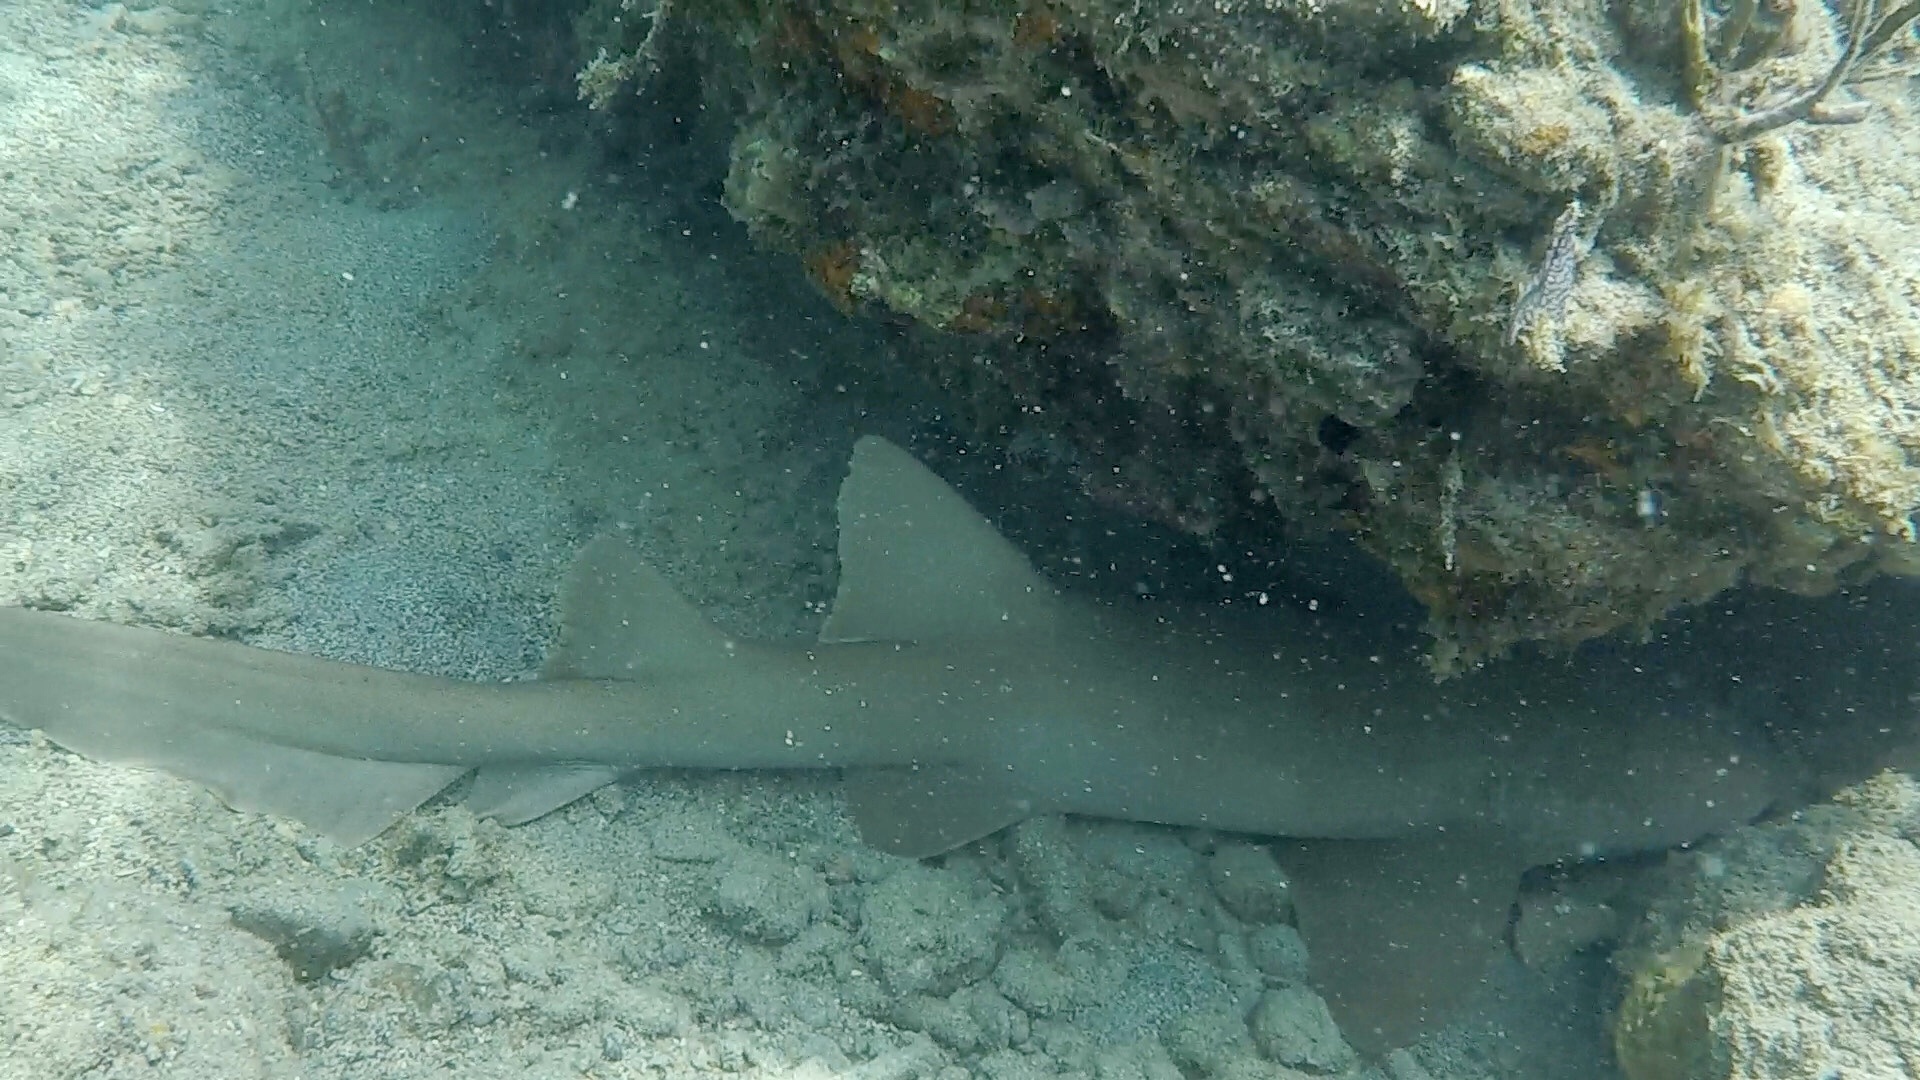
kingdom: Animalia
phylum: Chordata
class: Elasmobranchii
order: Orectolobiformes
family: Ginglymostomatidae
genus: Ginglymostoma
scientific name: Ginglymostoma cirratum
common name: Nurse shark
